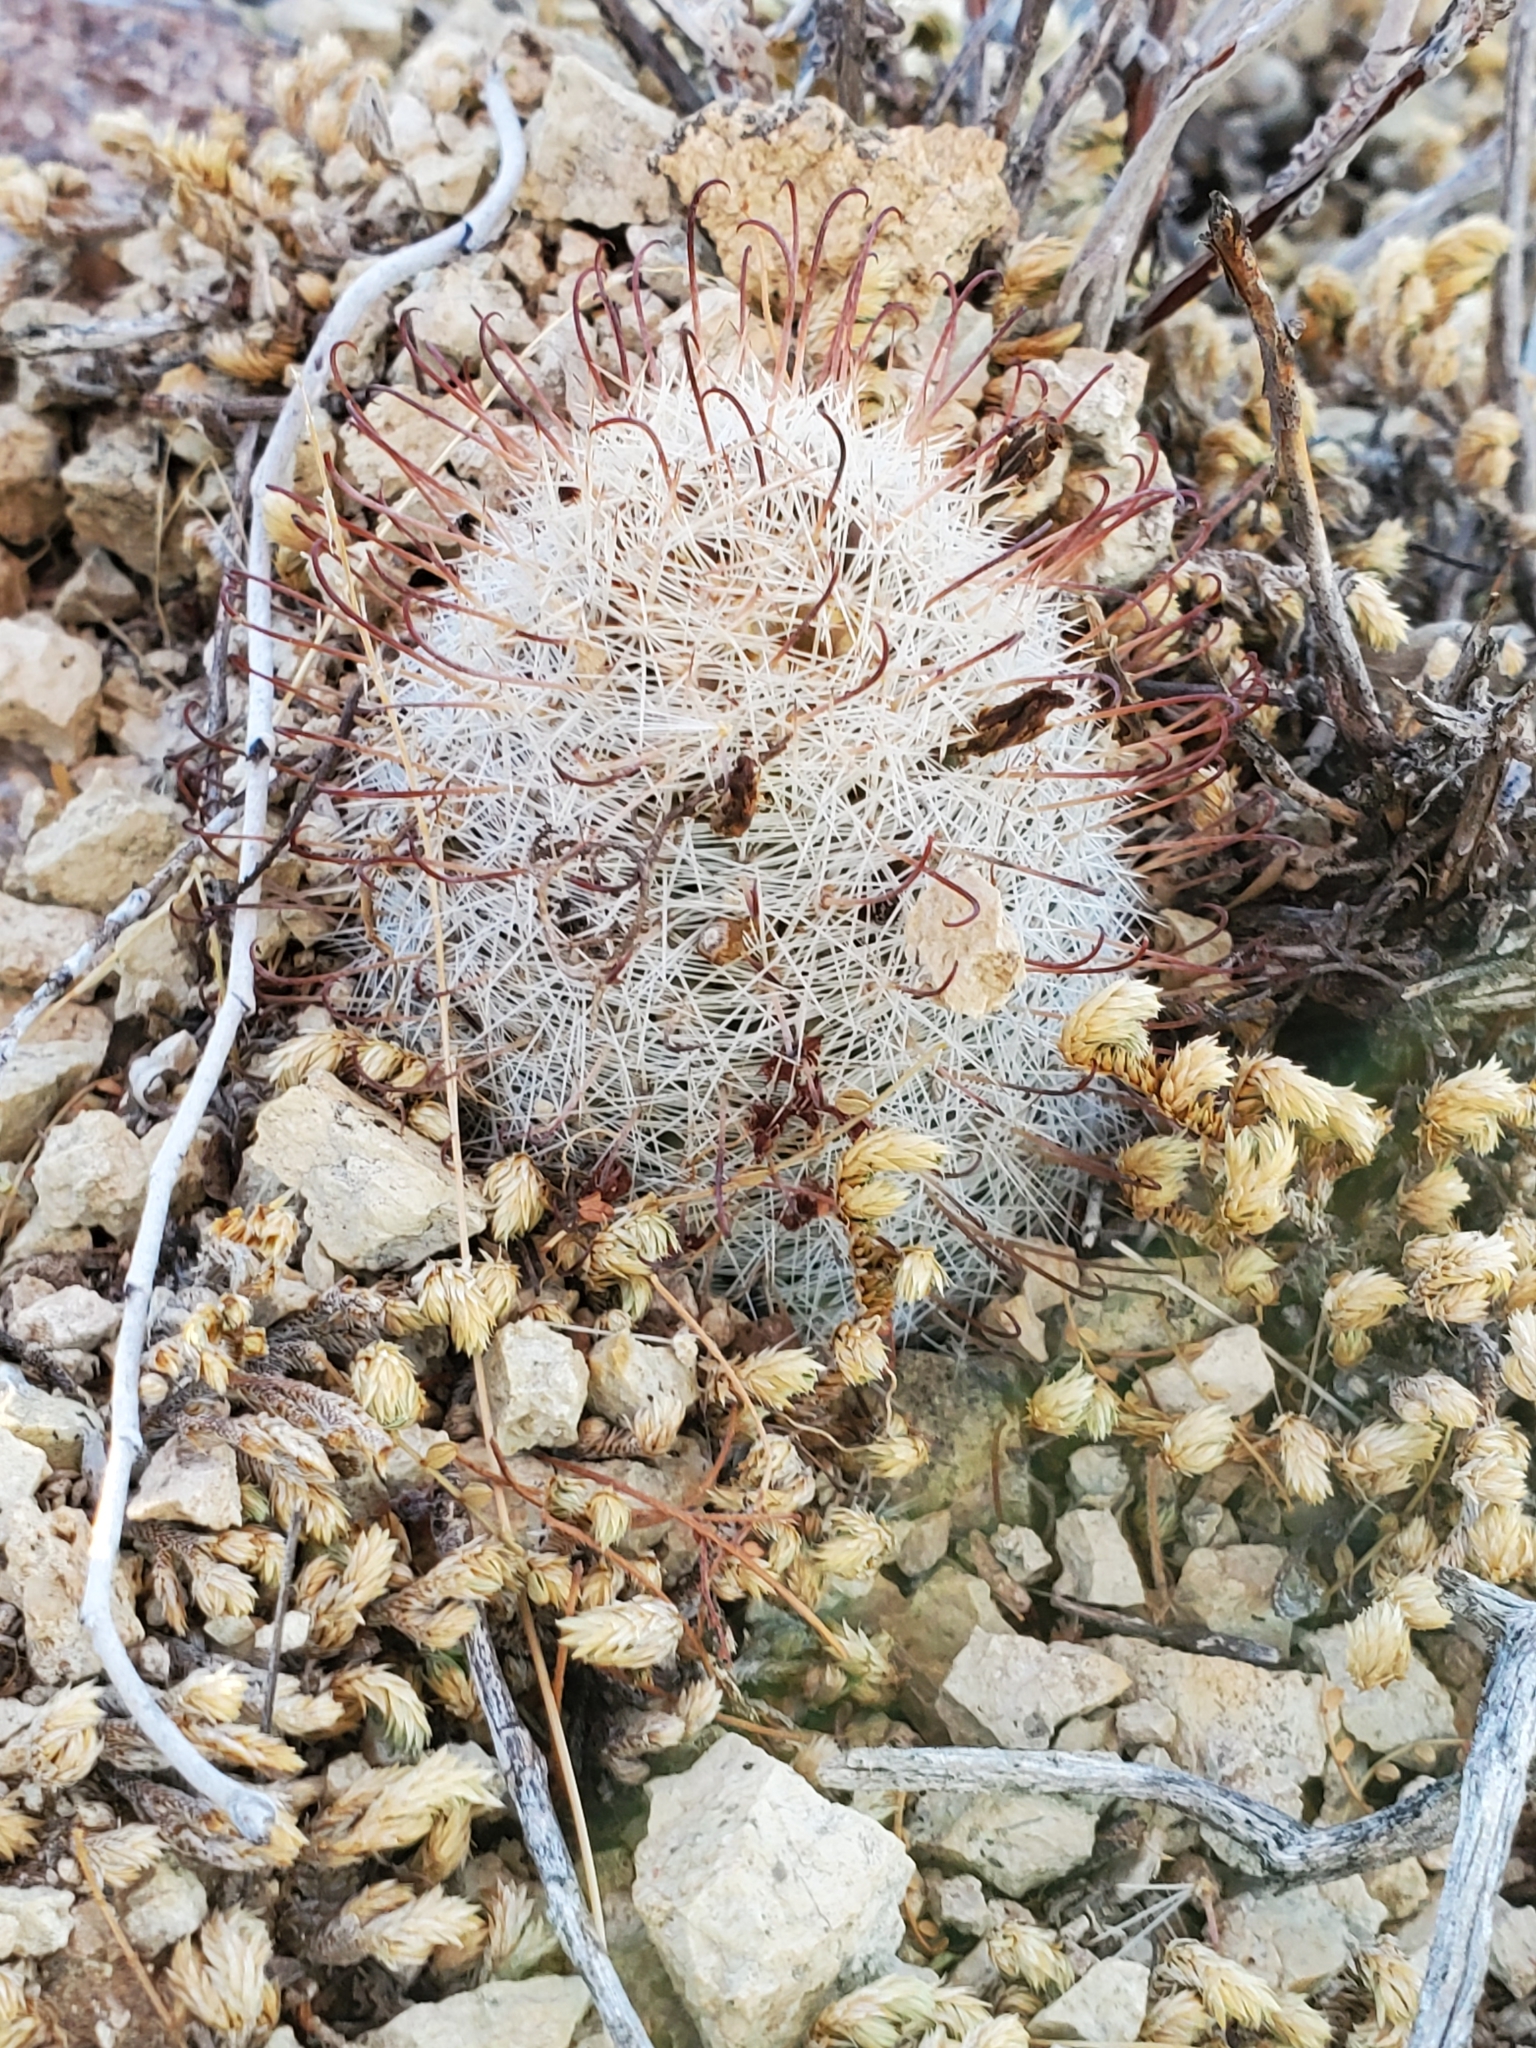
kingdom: Plantae
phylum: Tracheophyta
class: Magnoliopsida
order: Caryophyllales
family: Cactaceae
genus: Cochemiea
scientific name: Cochemiea grahamii
